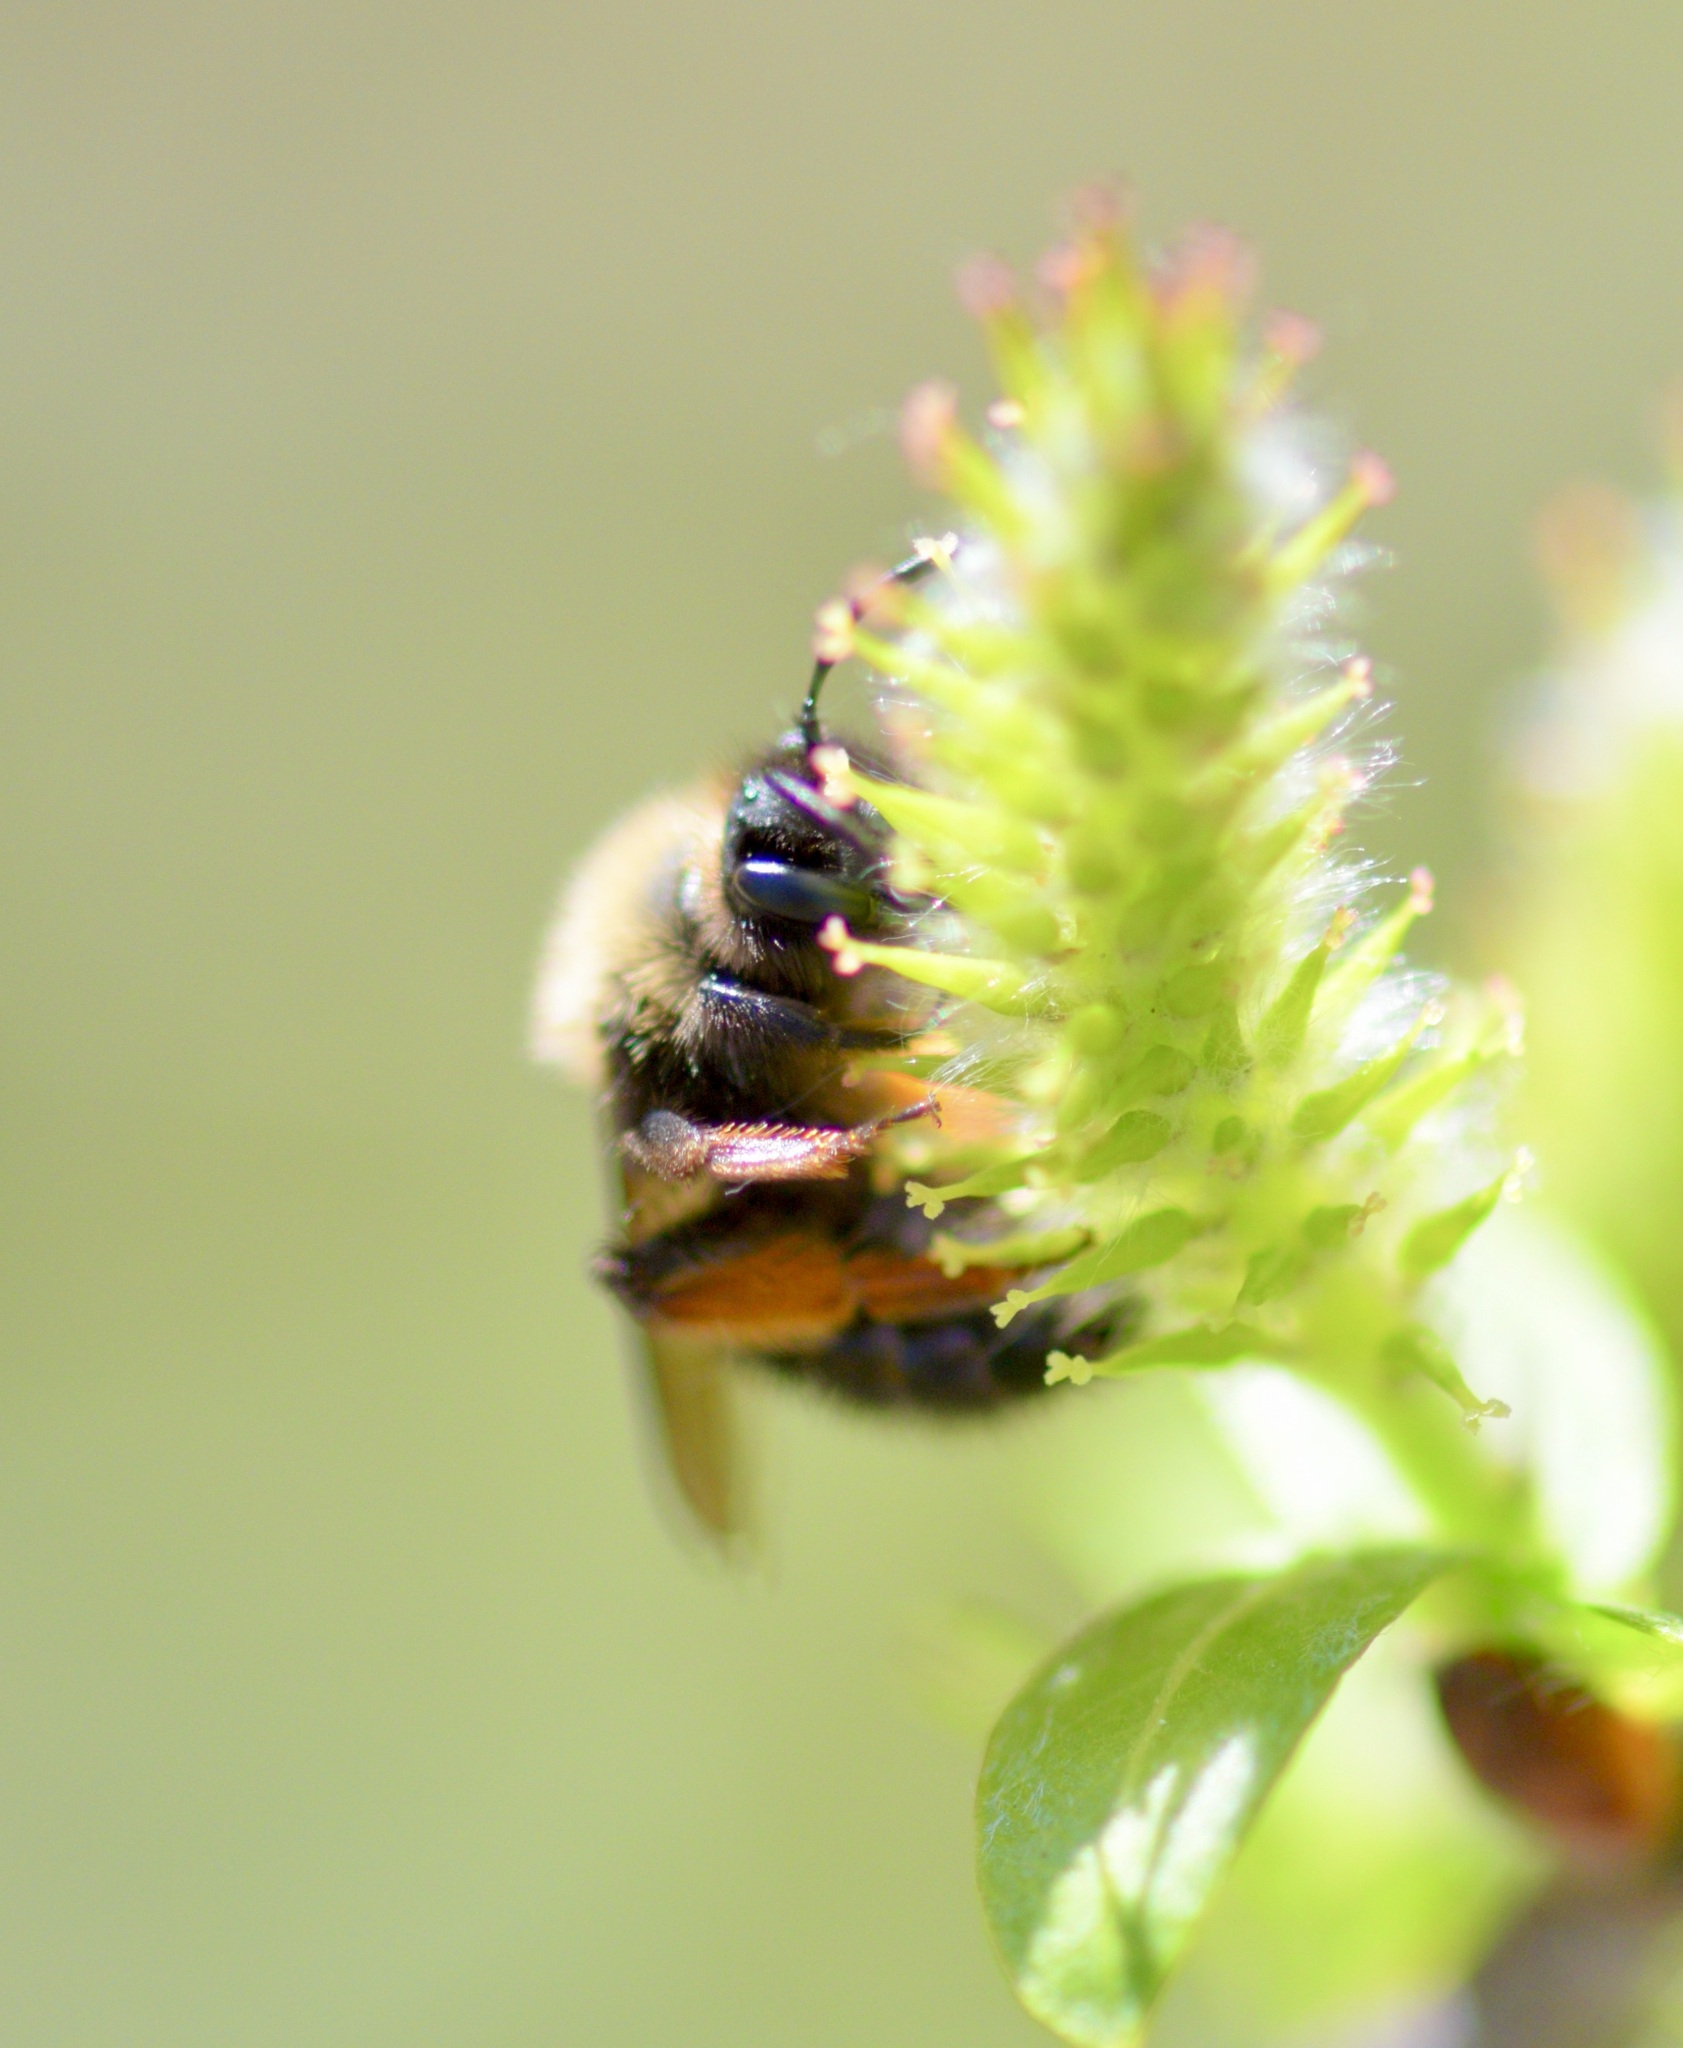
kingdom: Animalia
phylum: Arthropoda
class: Insecta
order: Hymenoptera
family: Andrenidae
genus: Andrena
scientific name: Andrena clarkella
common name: Clarke's mining bee
